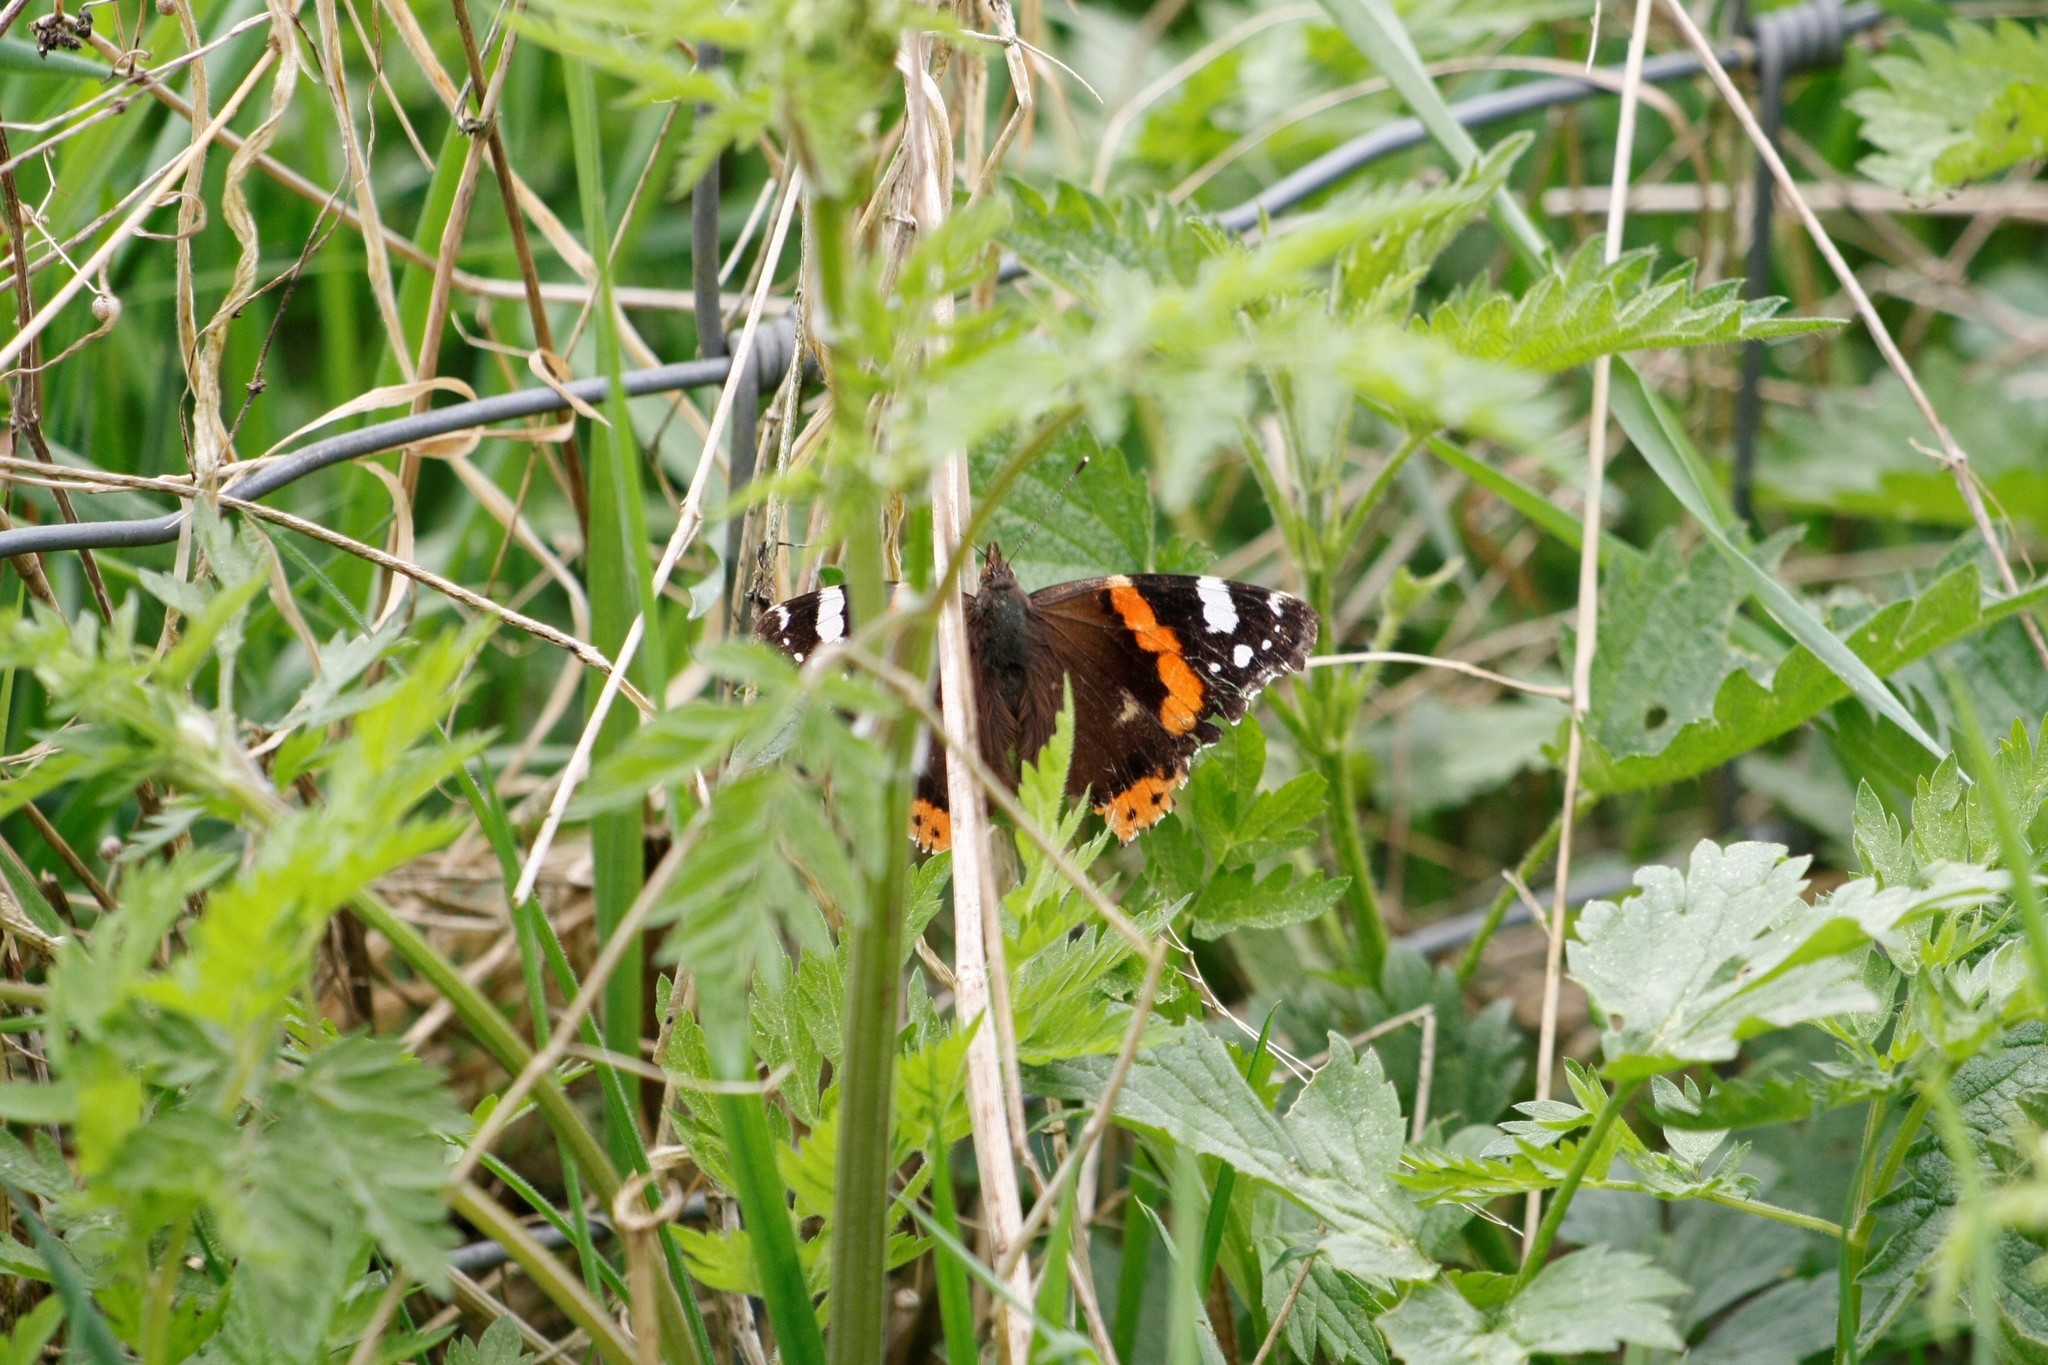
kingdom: Animalia
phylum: Arthropoda
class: Insecta
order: Lepidoptera
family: Nymphalidae
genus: Vanessa
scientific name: Vanessa atalanta
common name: Red admiral
